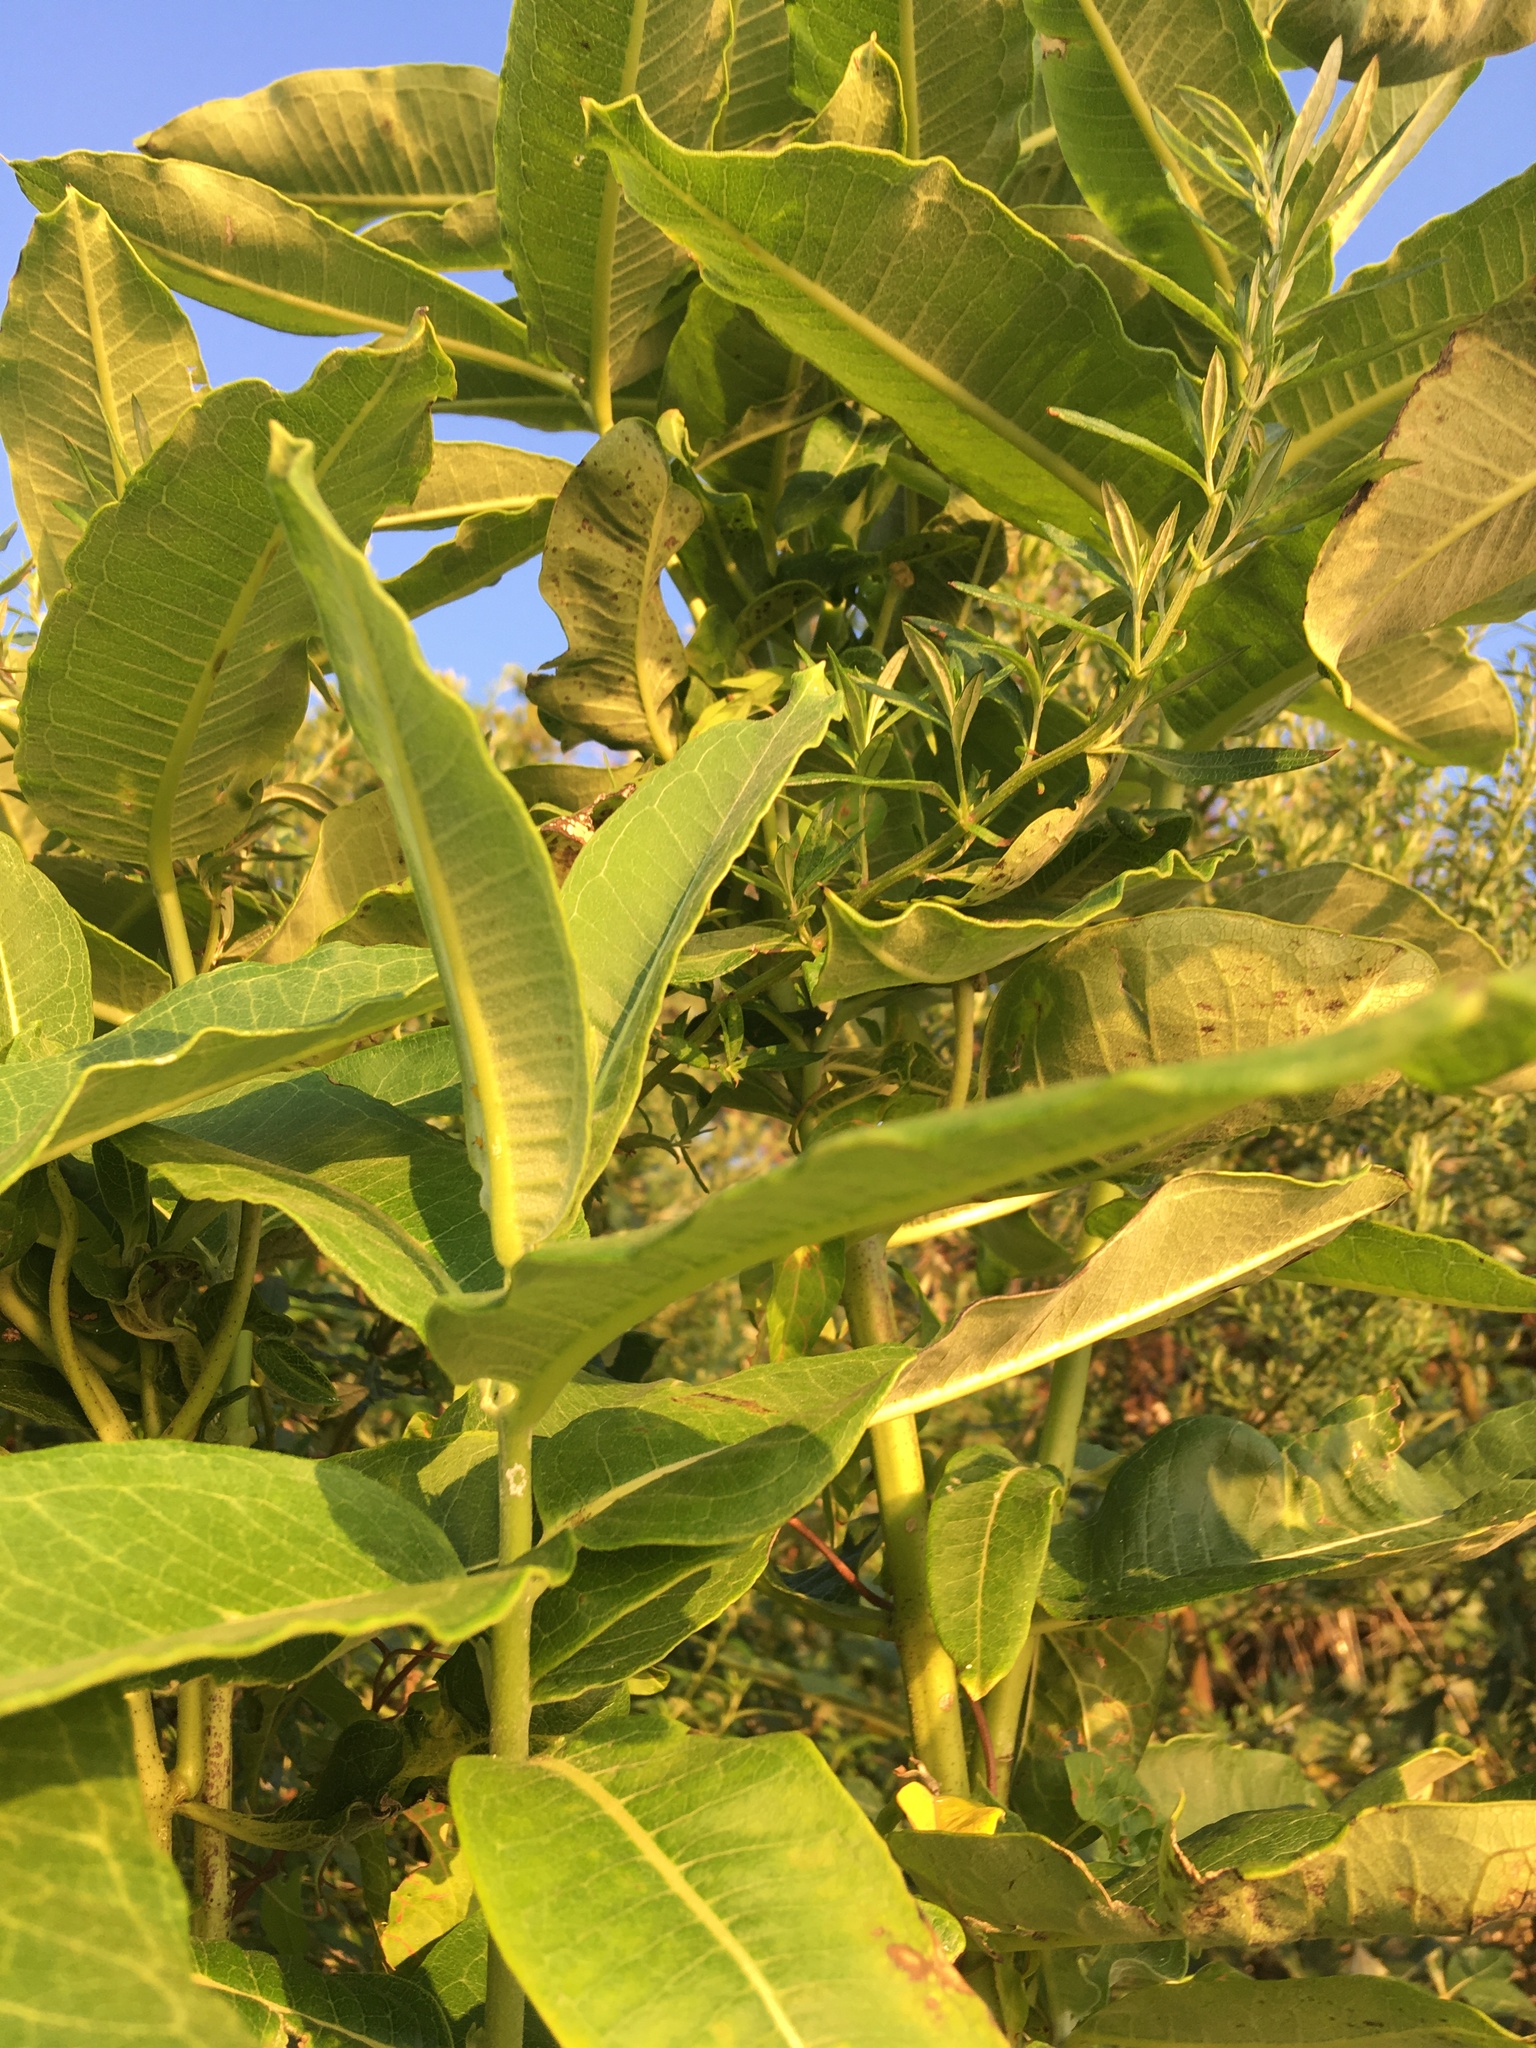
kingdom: Plantae
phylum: Tracheophyta
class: Magnoliopsida
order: Gentianales
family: Apocynaceae
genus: Asclepias
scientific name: Asclepias syriaca
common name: Common milkweed
